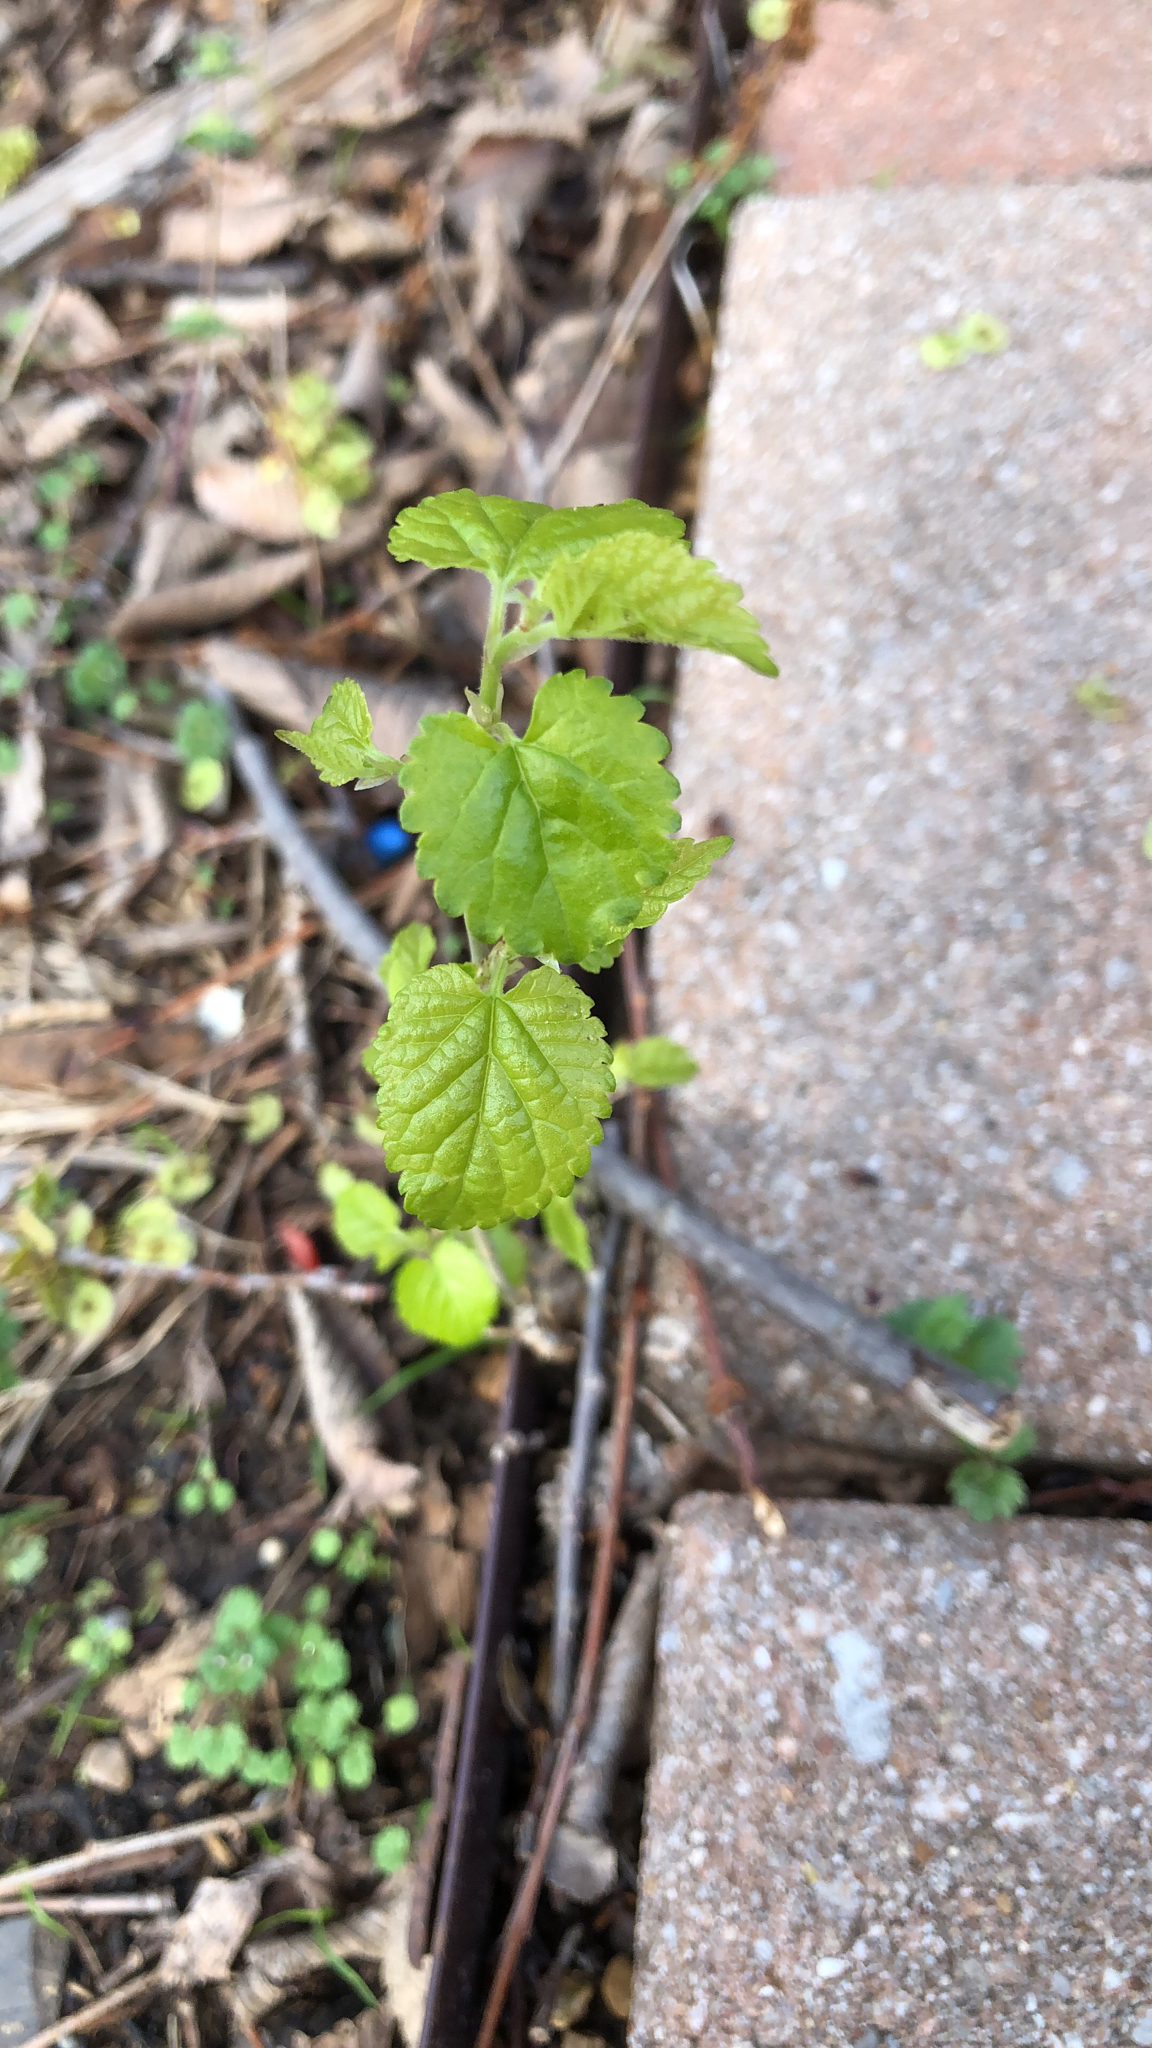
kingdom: Plantae
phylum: Tracheophyta
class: Magnoliopsida
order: Rosales
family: Moraceae
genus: Morus
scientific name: Morus alba
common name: White mulberry
